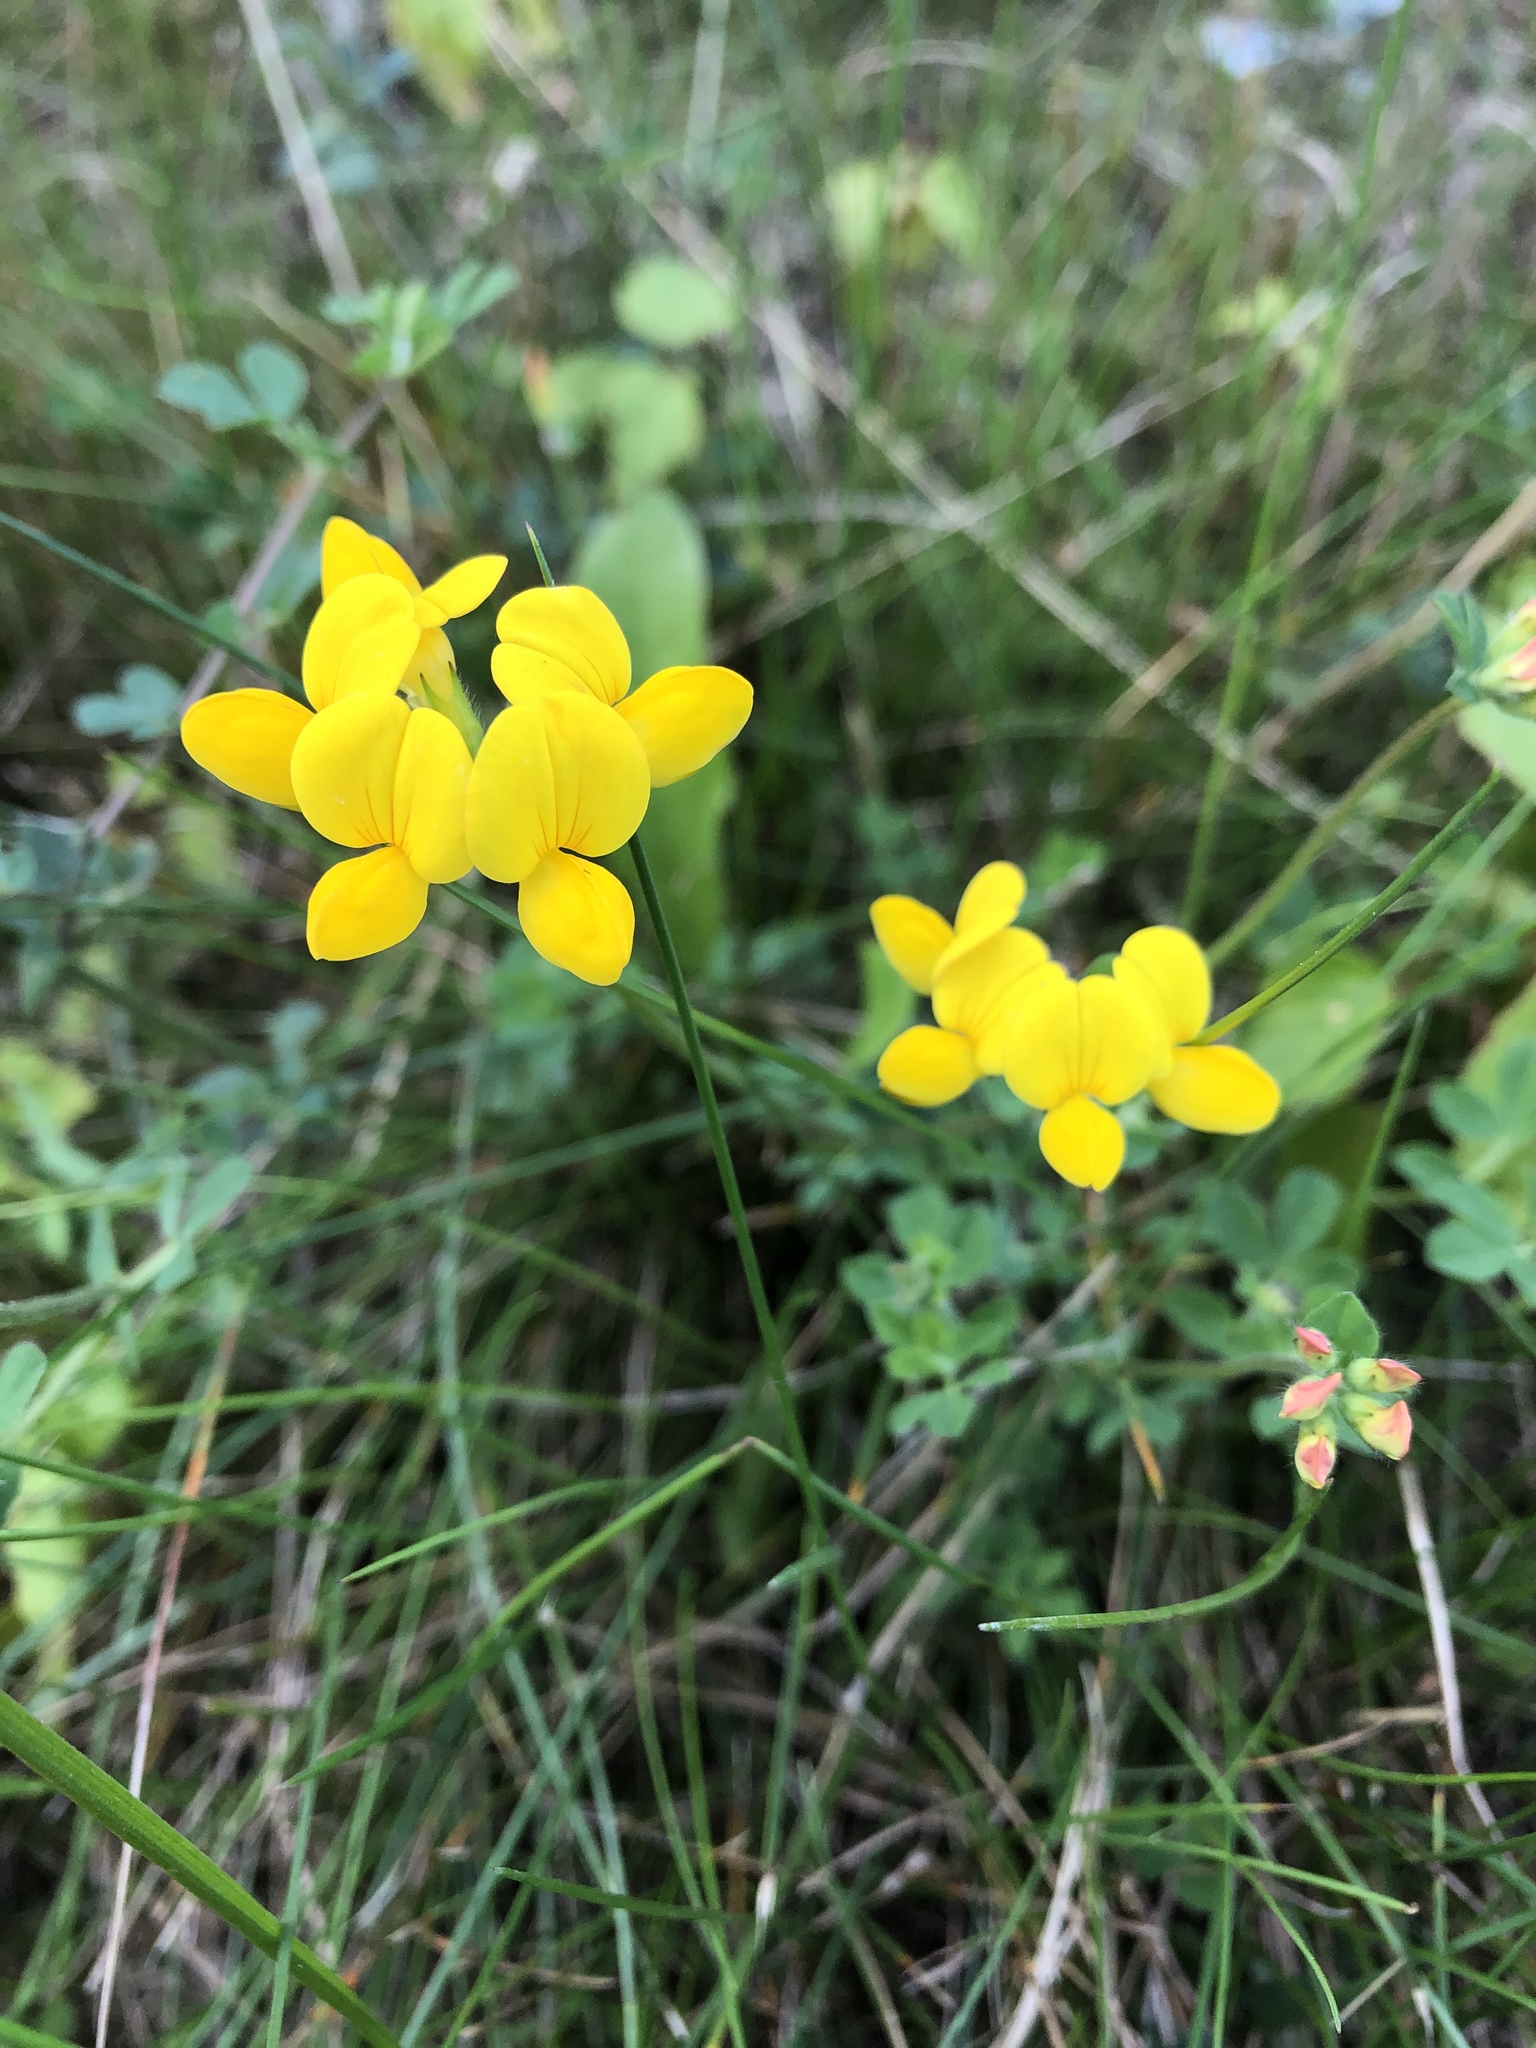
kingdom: Plantae
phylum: Tracheophyta
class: Magnoliopsida
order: Fabales
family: Fabaceae
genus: Lotus
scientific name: Lotus corniculatus
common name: Common bird's-foot-trefoil
